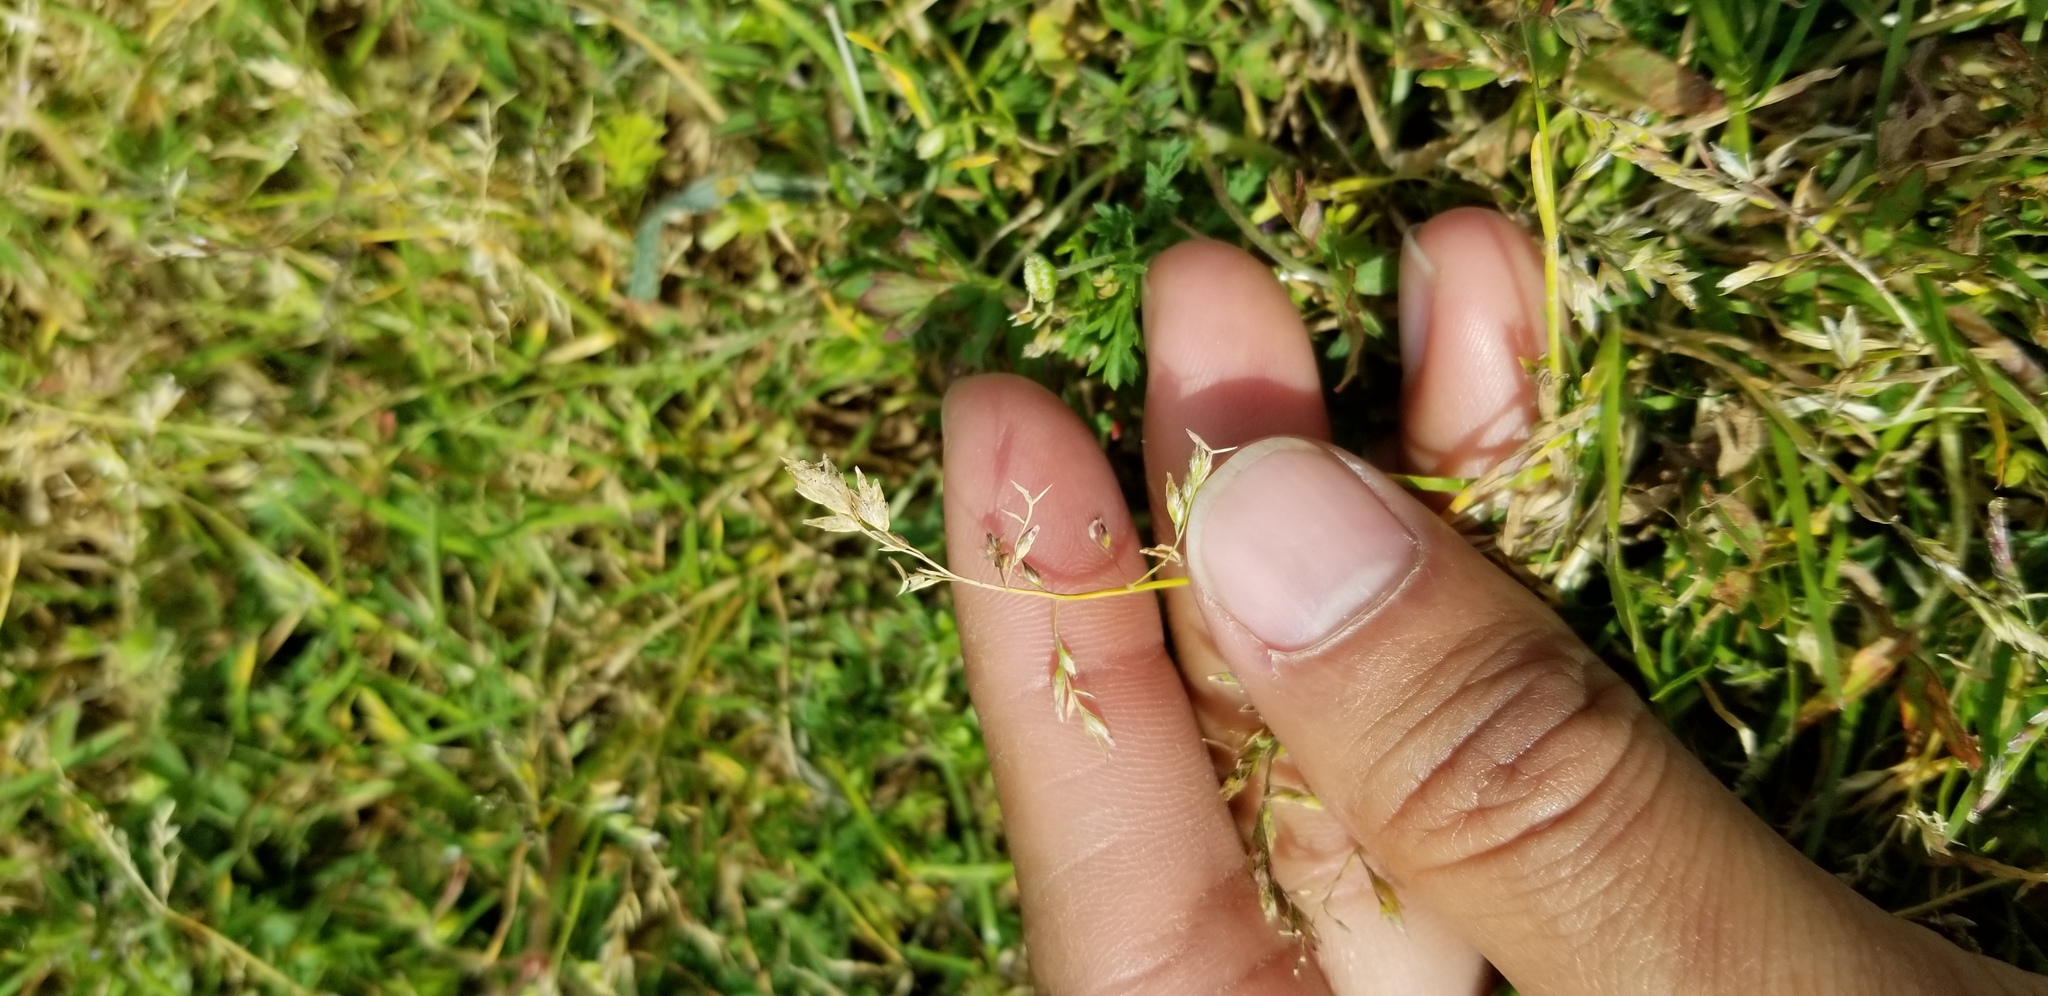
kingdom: Plantae
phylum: Tracheophyta
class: Liliopsida
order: Poales
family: Poaceae
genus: Poa
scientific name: Poa annua
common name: Annual bluegrass
